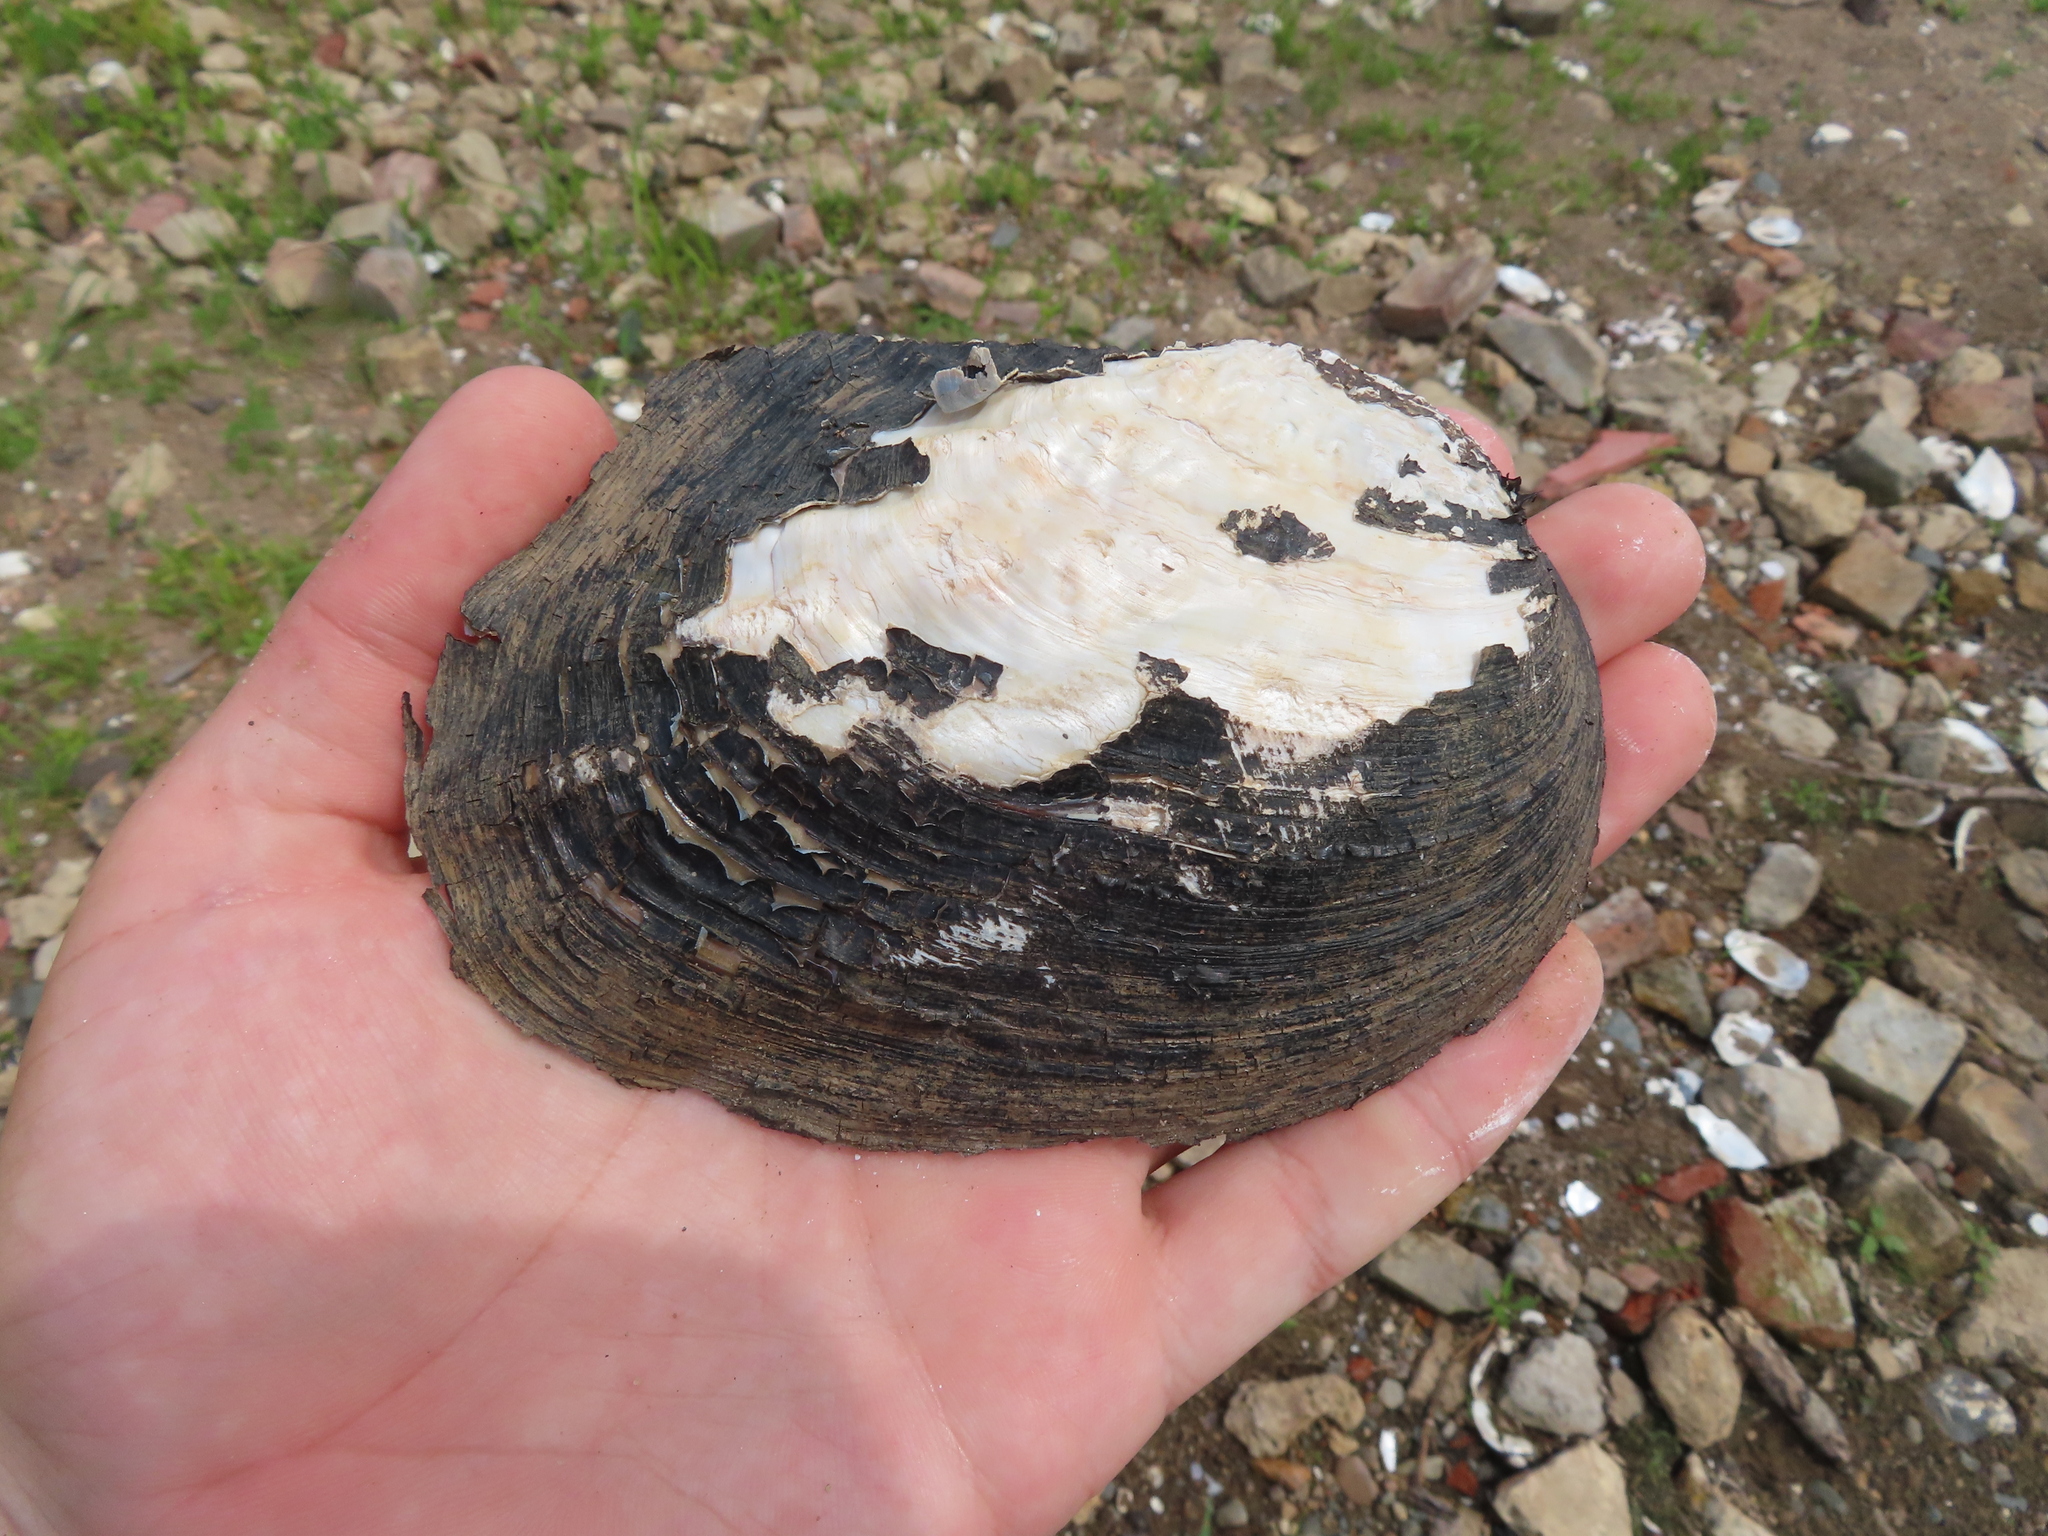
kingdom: Animalia
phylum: Mollusca
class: Bivalvia
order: Unionida
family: Unionidae
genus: Megalonaias
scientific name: Megalonaias nervosa
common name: Washboard
